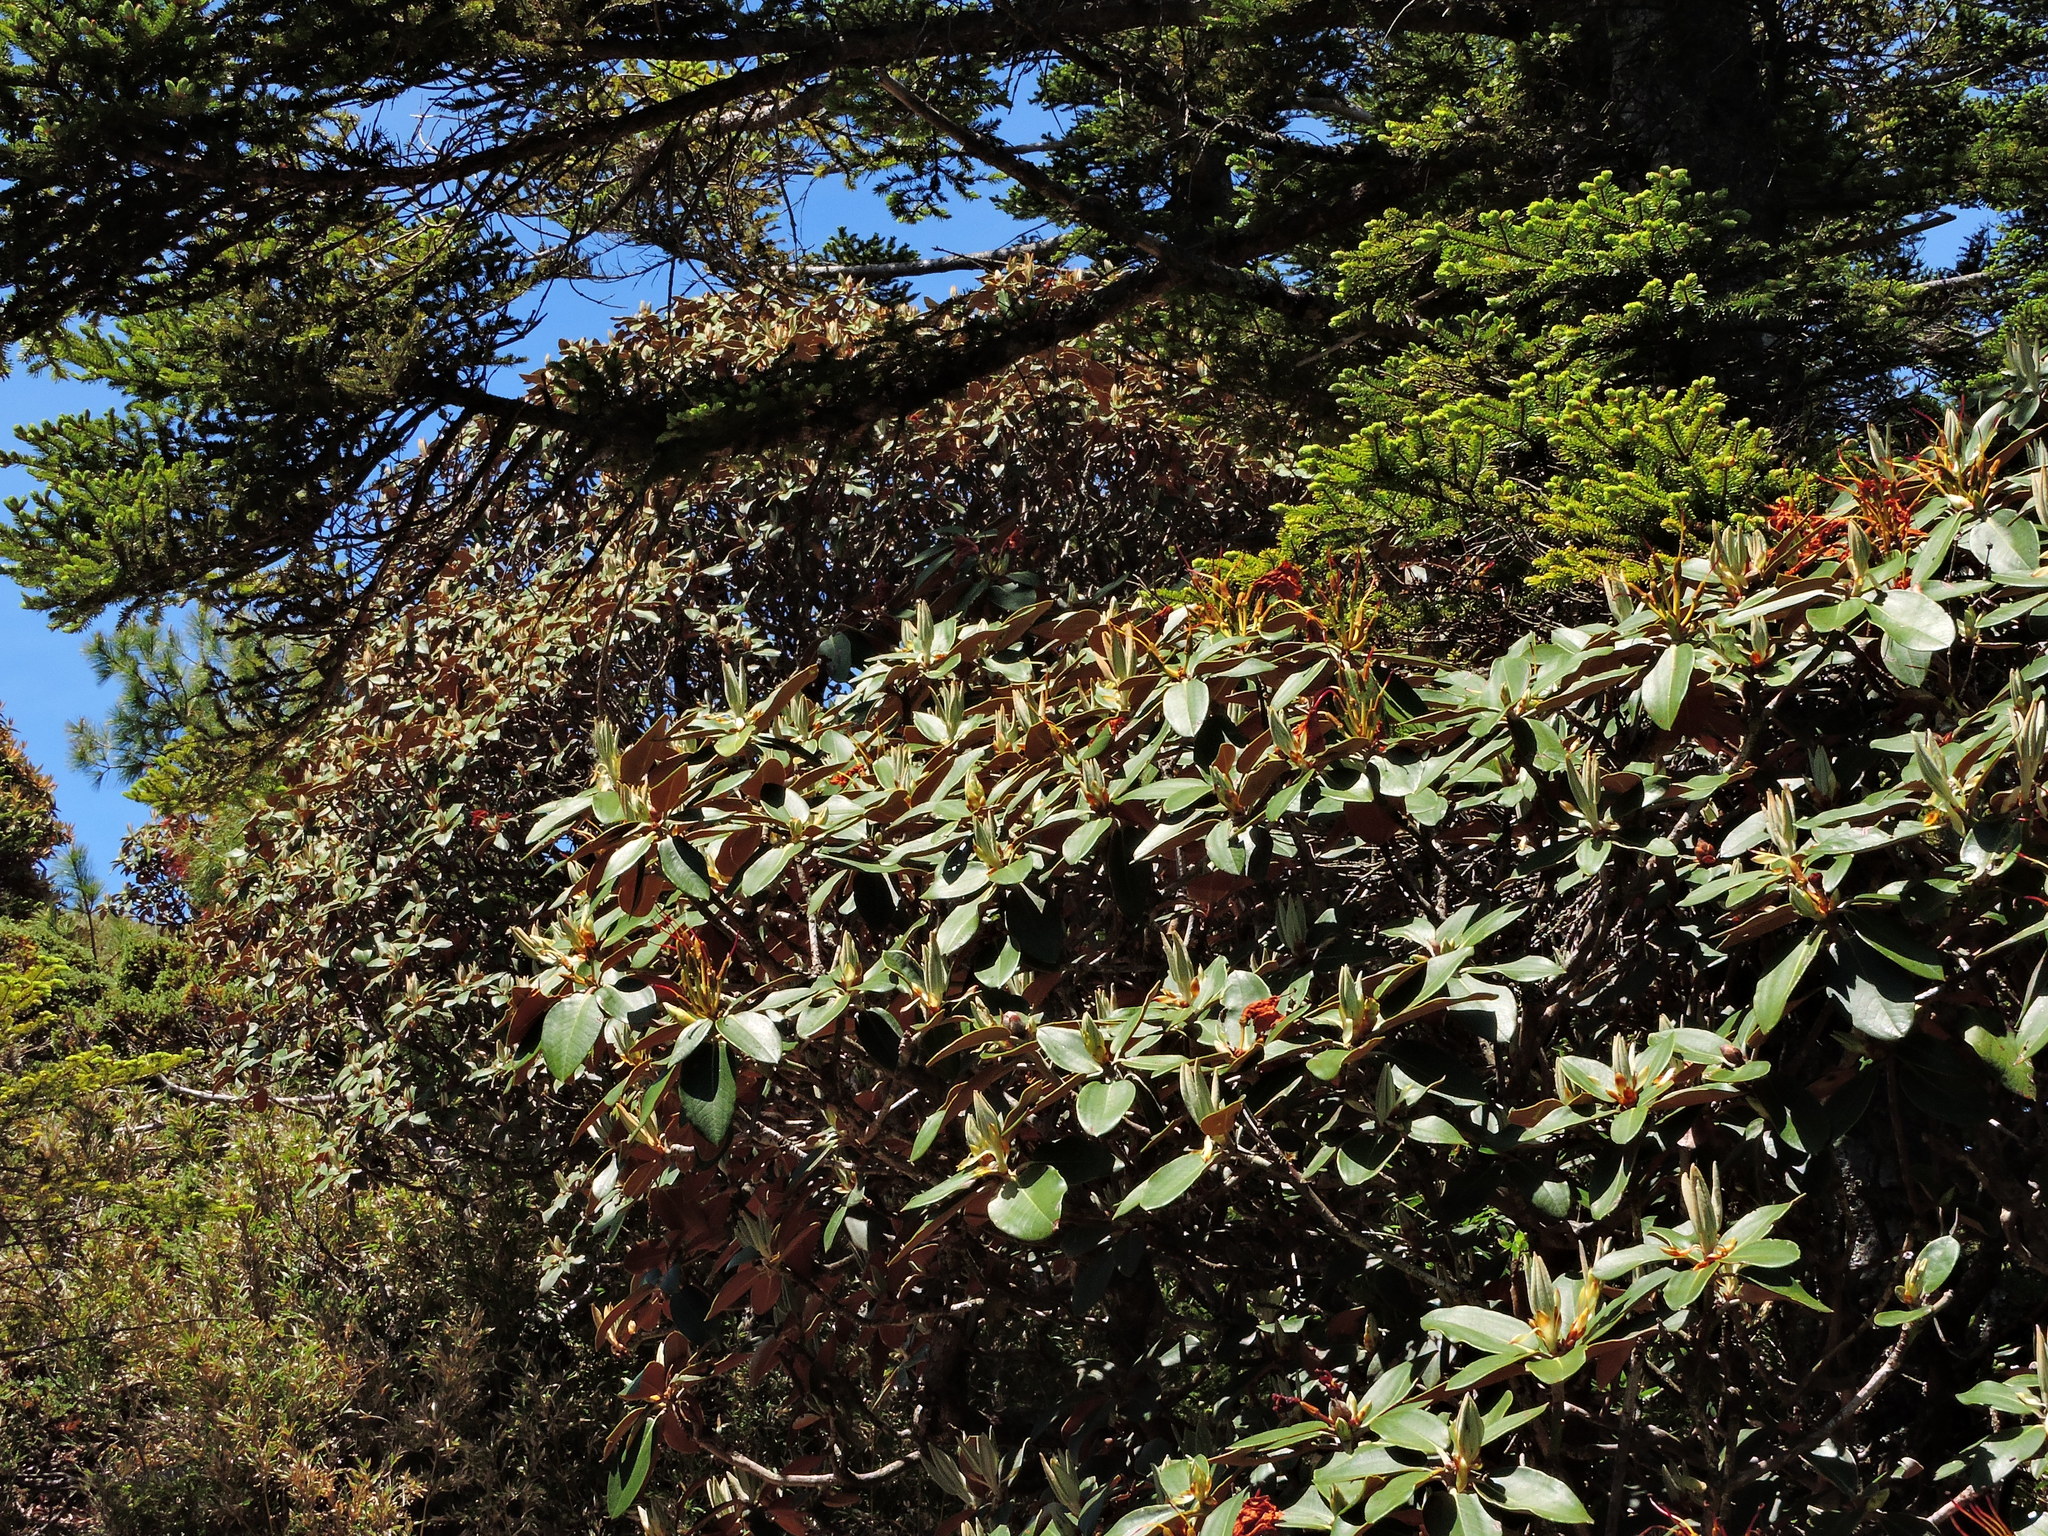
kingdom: Plantae
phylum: Tracheophyta
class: Magnoliopsida
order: Ericales
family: Ericaceae
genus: Rhododendron
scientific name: Rhododendron hyperythrum
